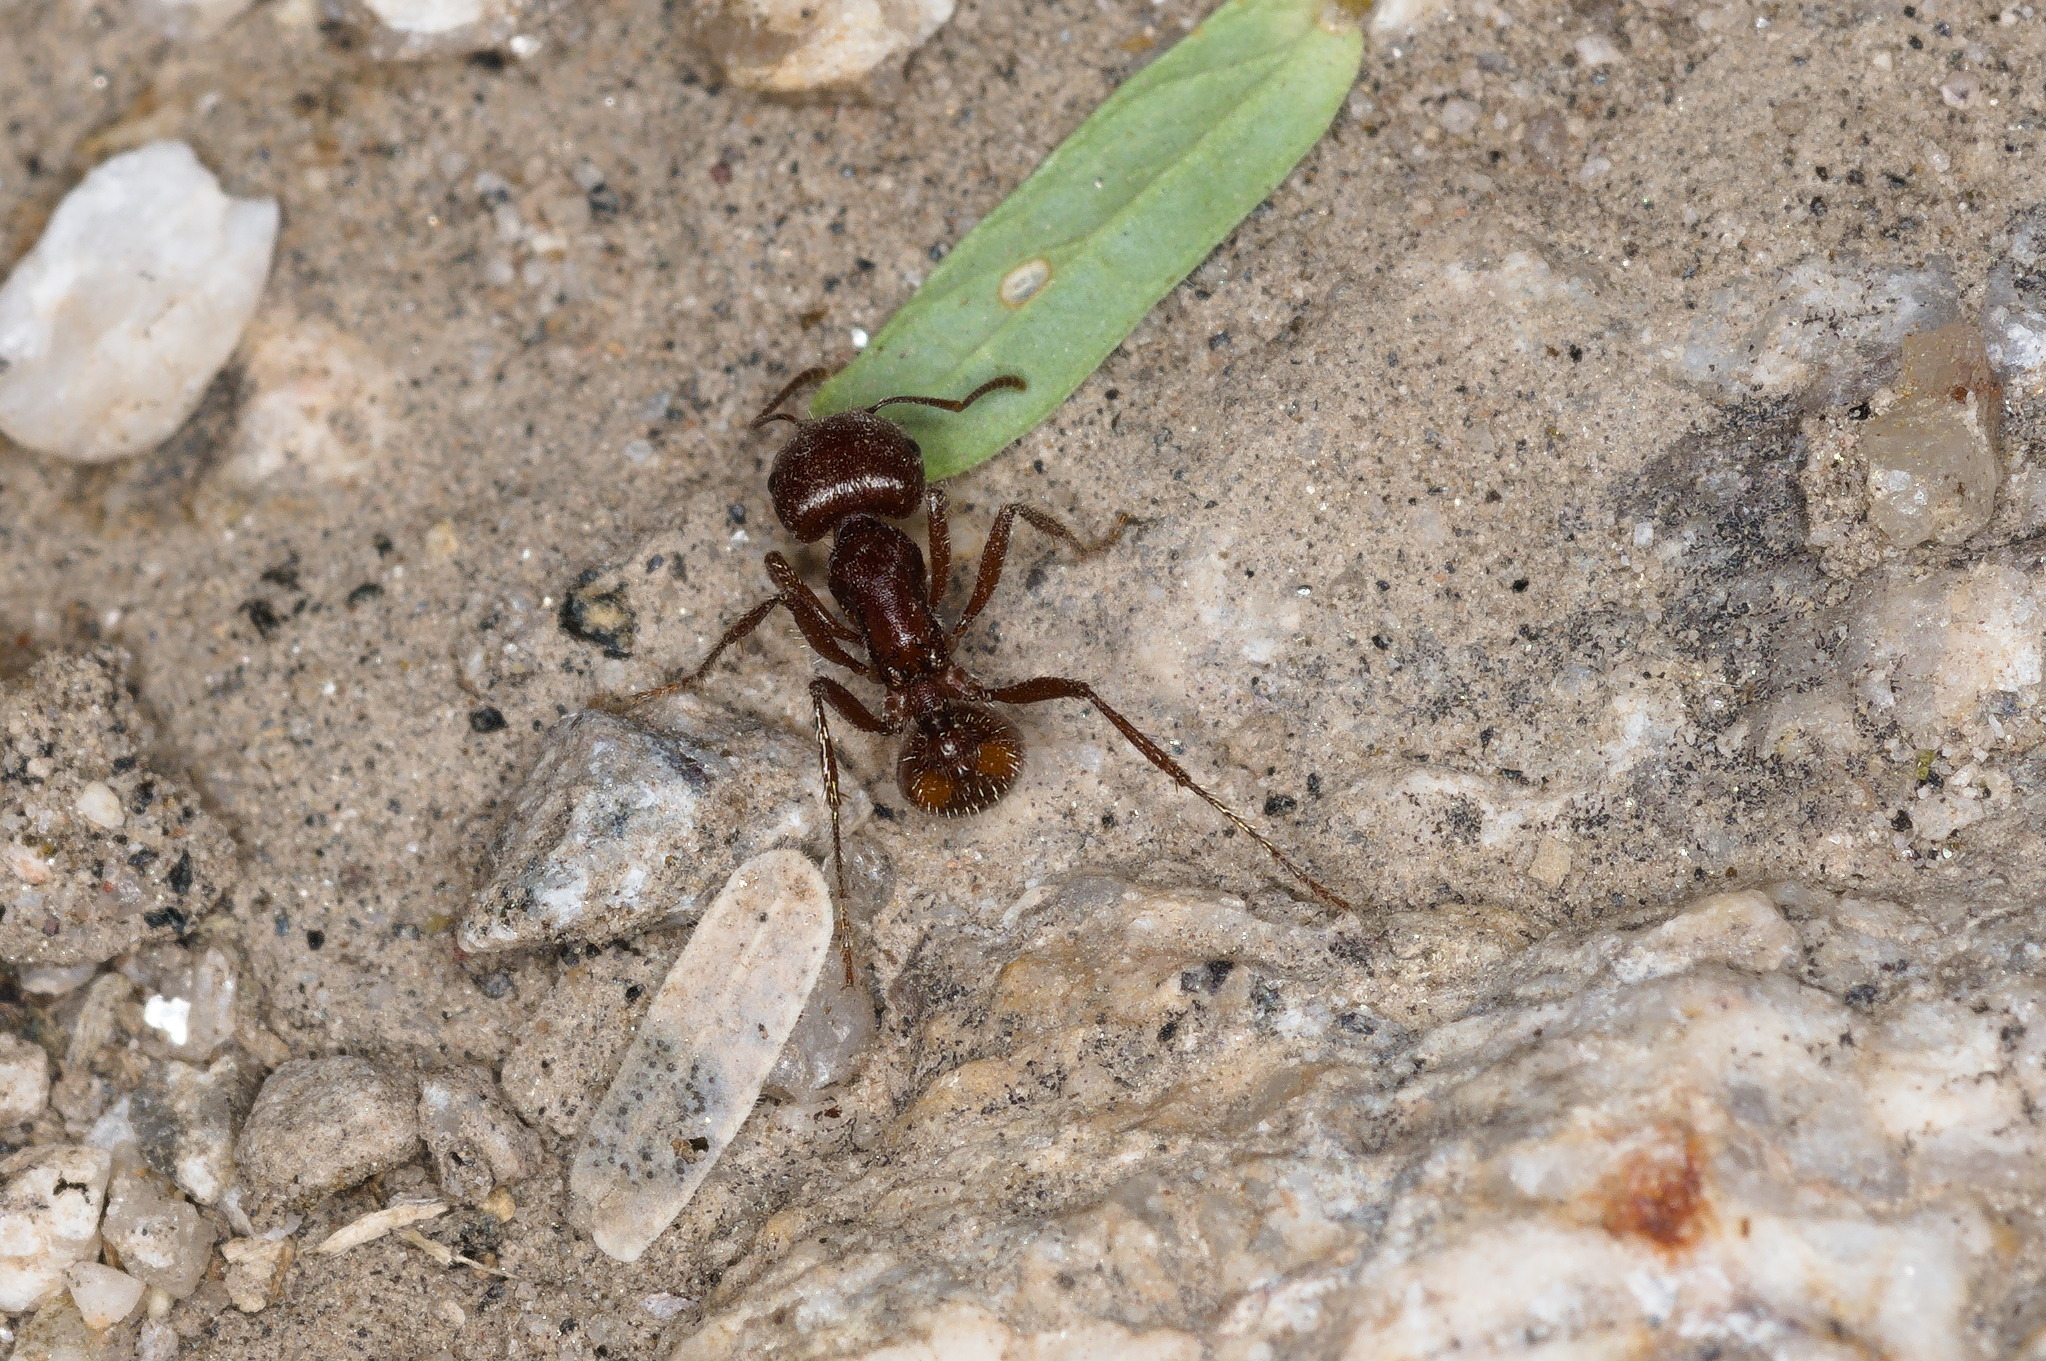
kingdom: Animalia
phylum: Arthropoda
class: Insecta
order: Hymenoptera
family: Formicidae
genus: Pogonomyrmex
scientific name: Pogonomyrmex barbatus
